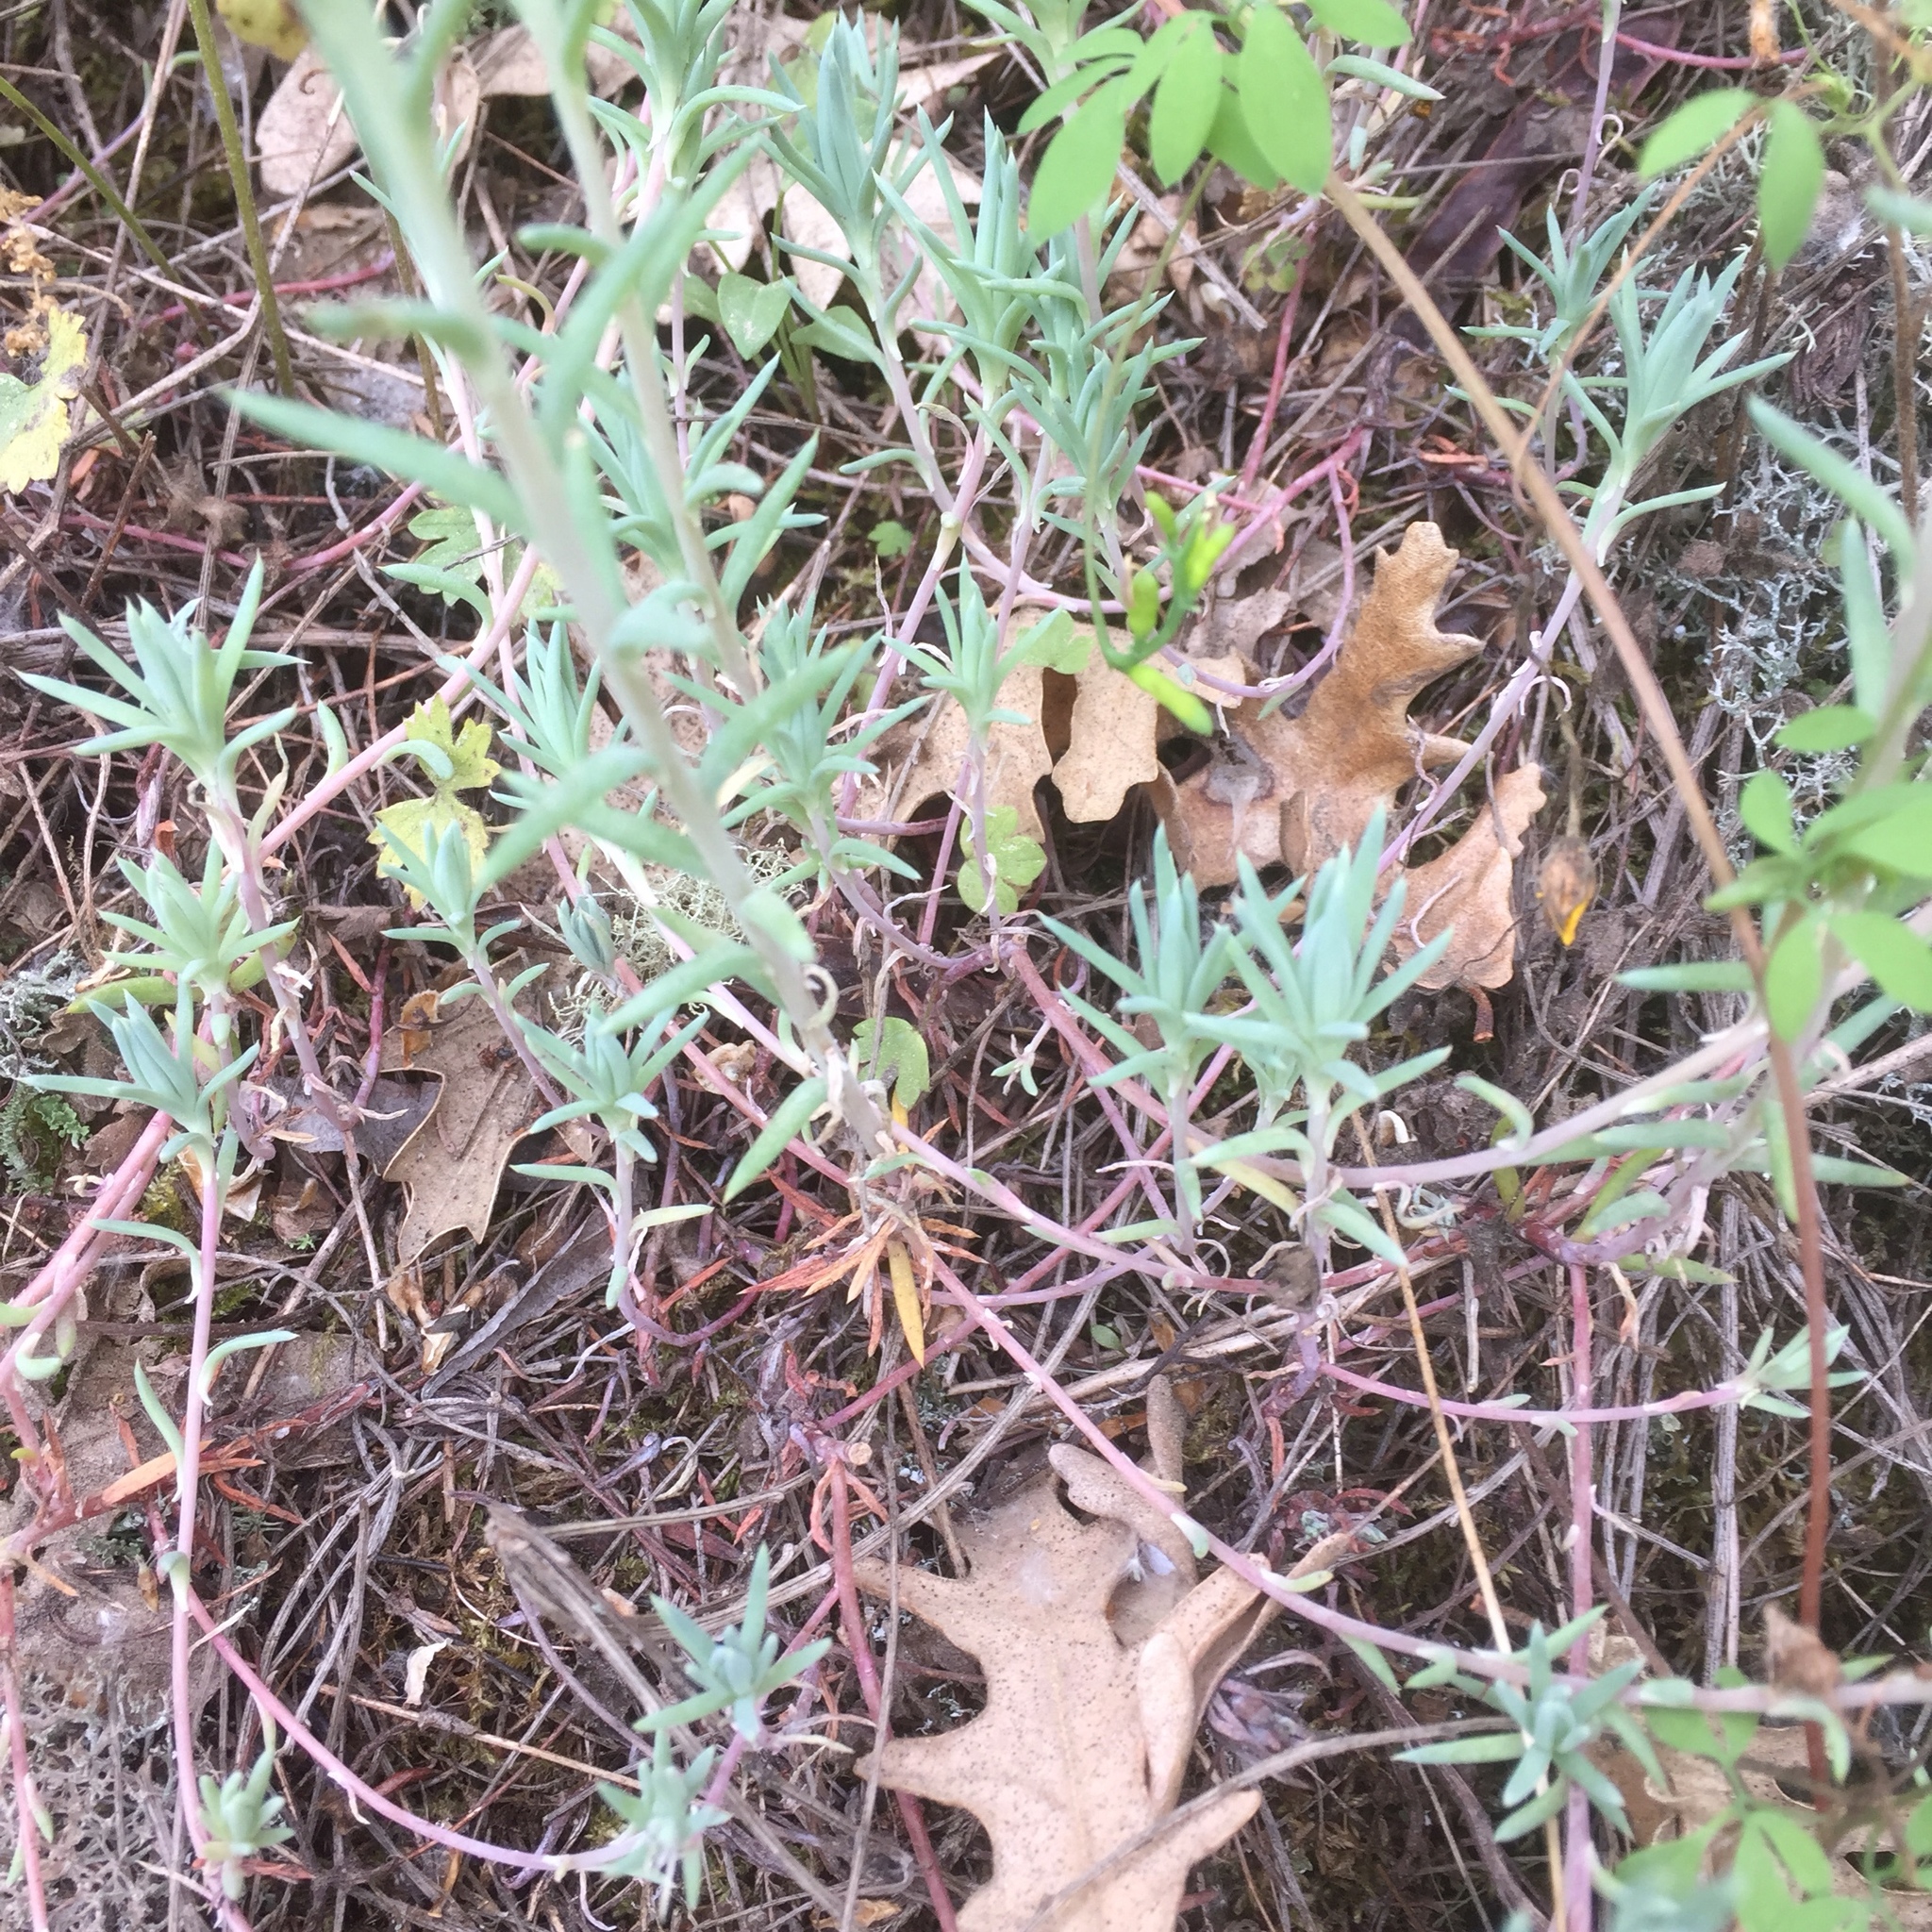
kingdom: Plantae
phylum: Tracheophyta
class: Magnoliopsida
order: Saxifragales
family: Crassulaceae
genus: Petrosedum
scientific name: Petrosedum pruinatum
